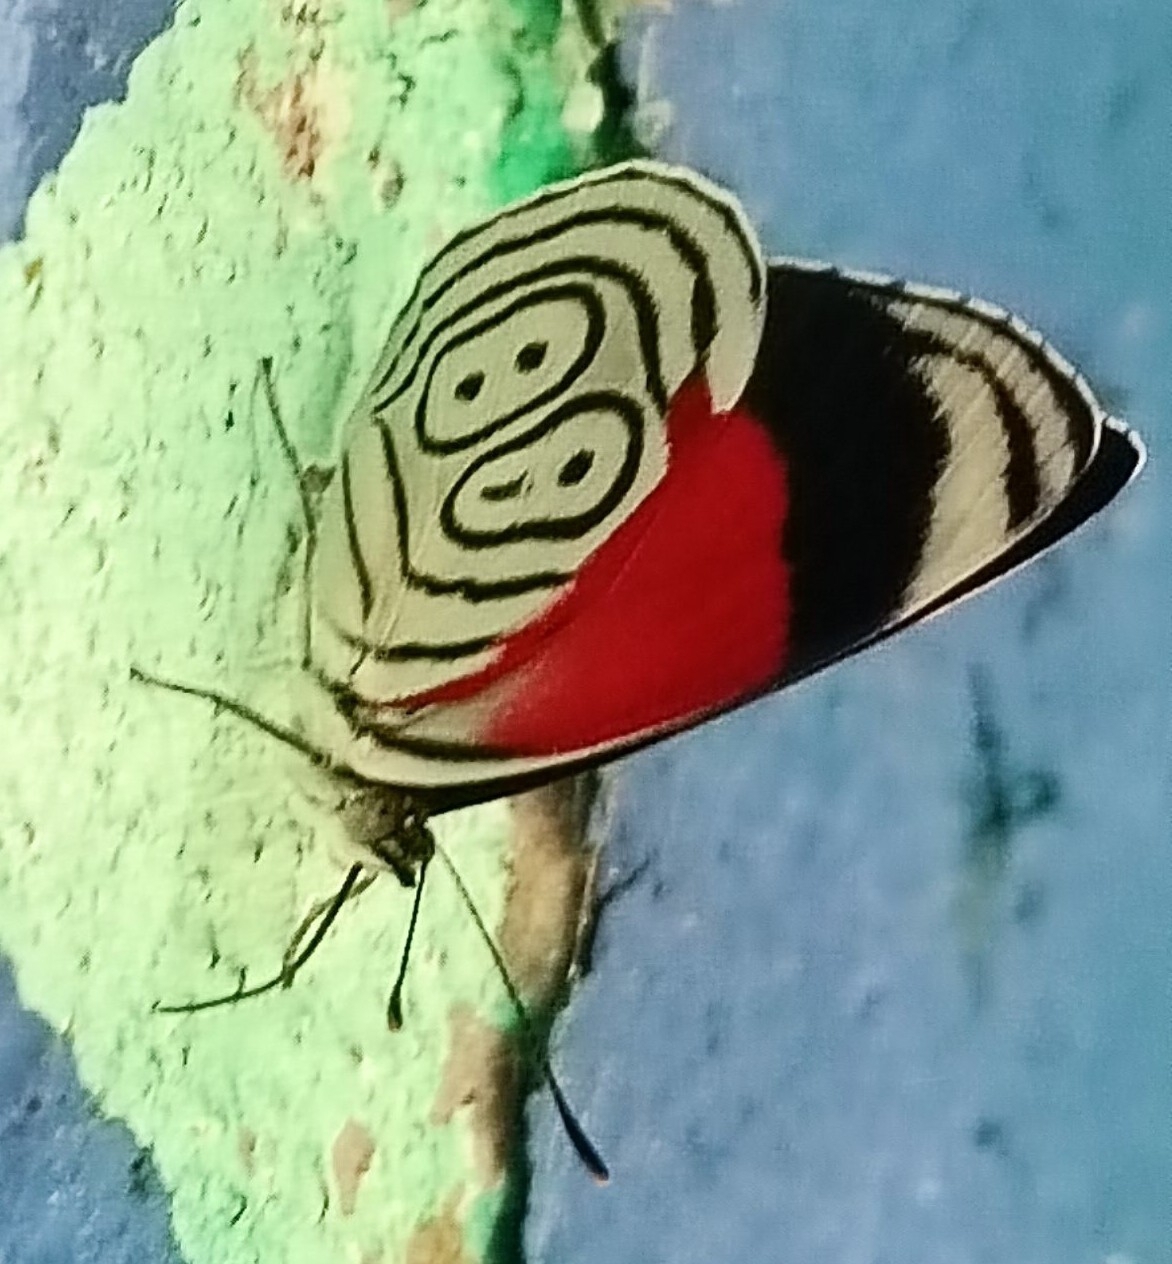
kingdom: Animalia
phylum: Arthropoda
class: Insecta
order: Lepidoptera
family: Nymphalidae
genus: Diaethria
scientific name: Diaethria anna
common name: Anna’s eighty-eight
